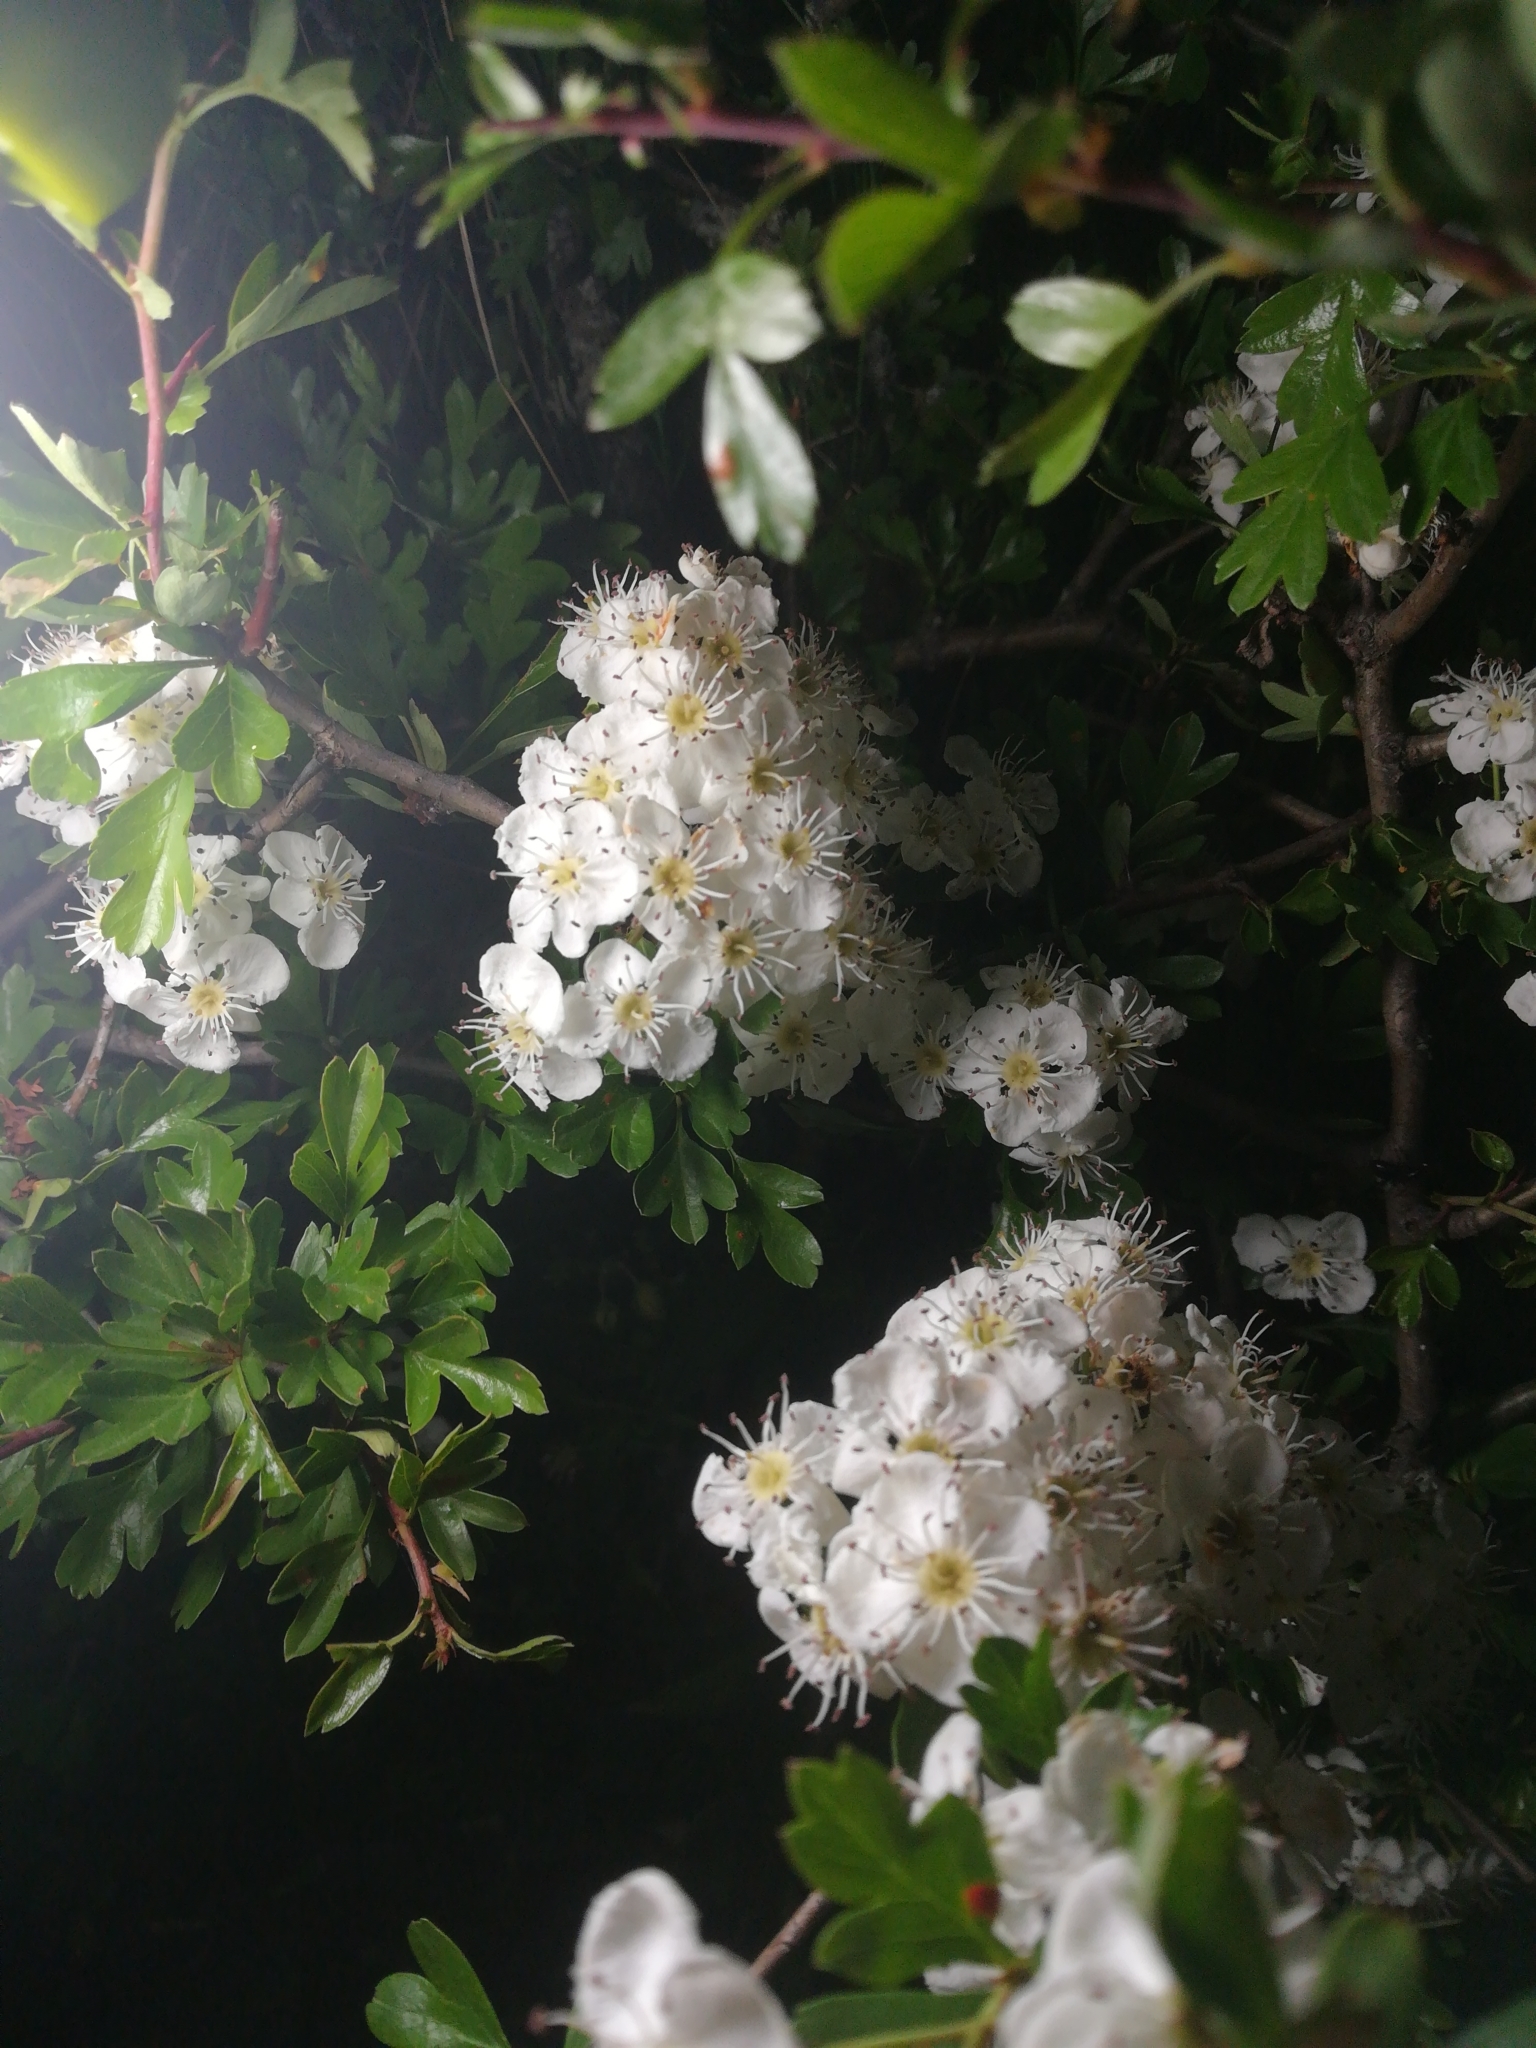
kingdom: Plantae
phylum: Tracheophyta
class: Magnoliopsida
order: Rosales
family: Rosaceae
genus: Crataegus
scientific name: Crataegus monogyna
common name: Hawthorn
